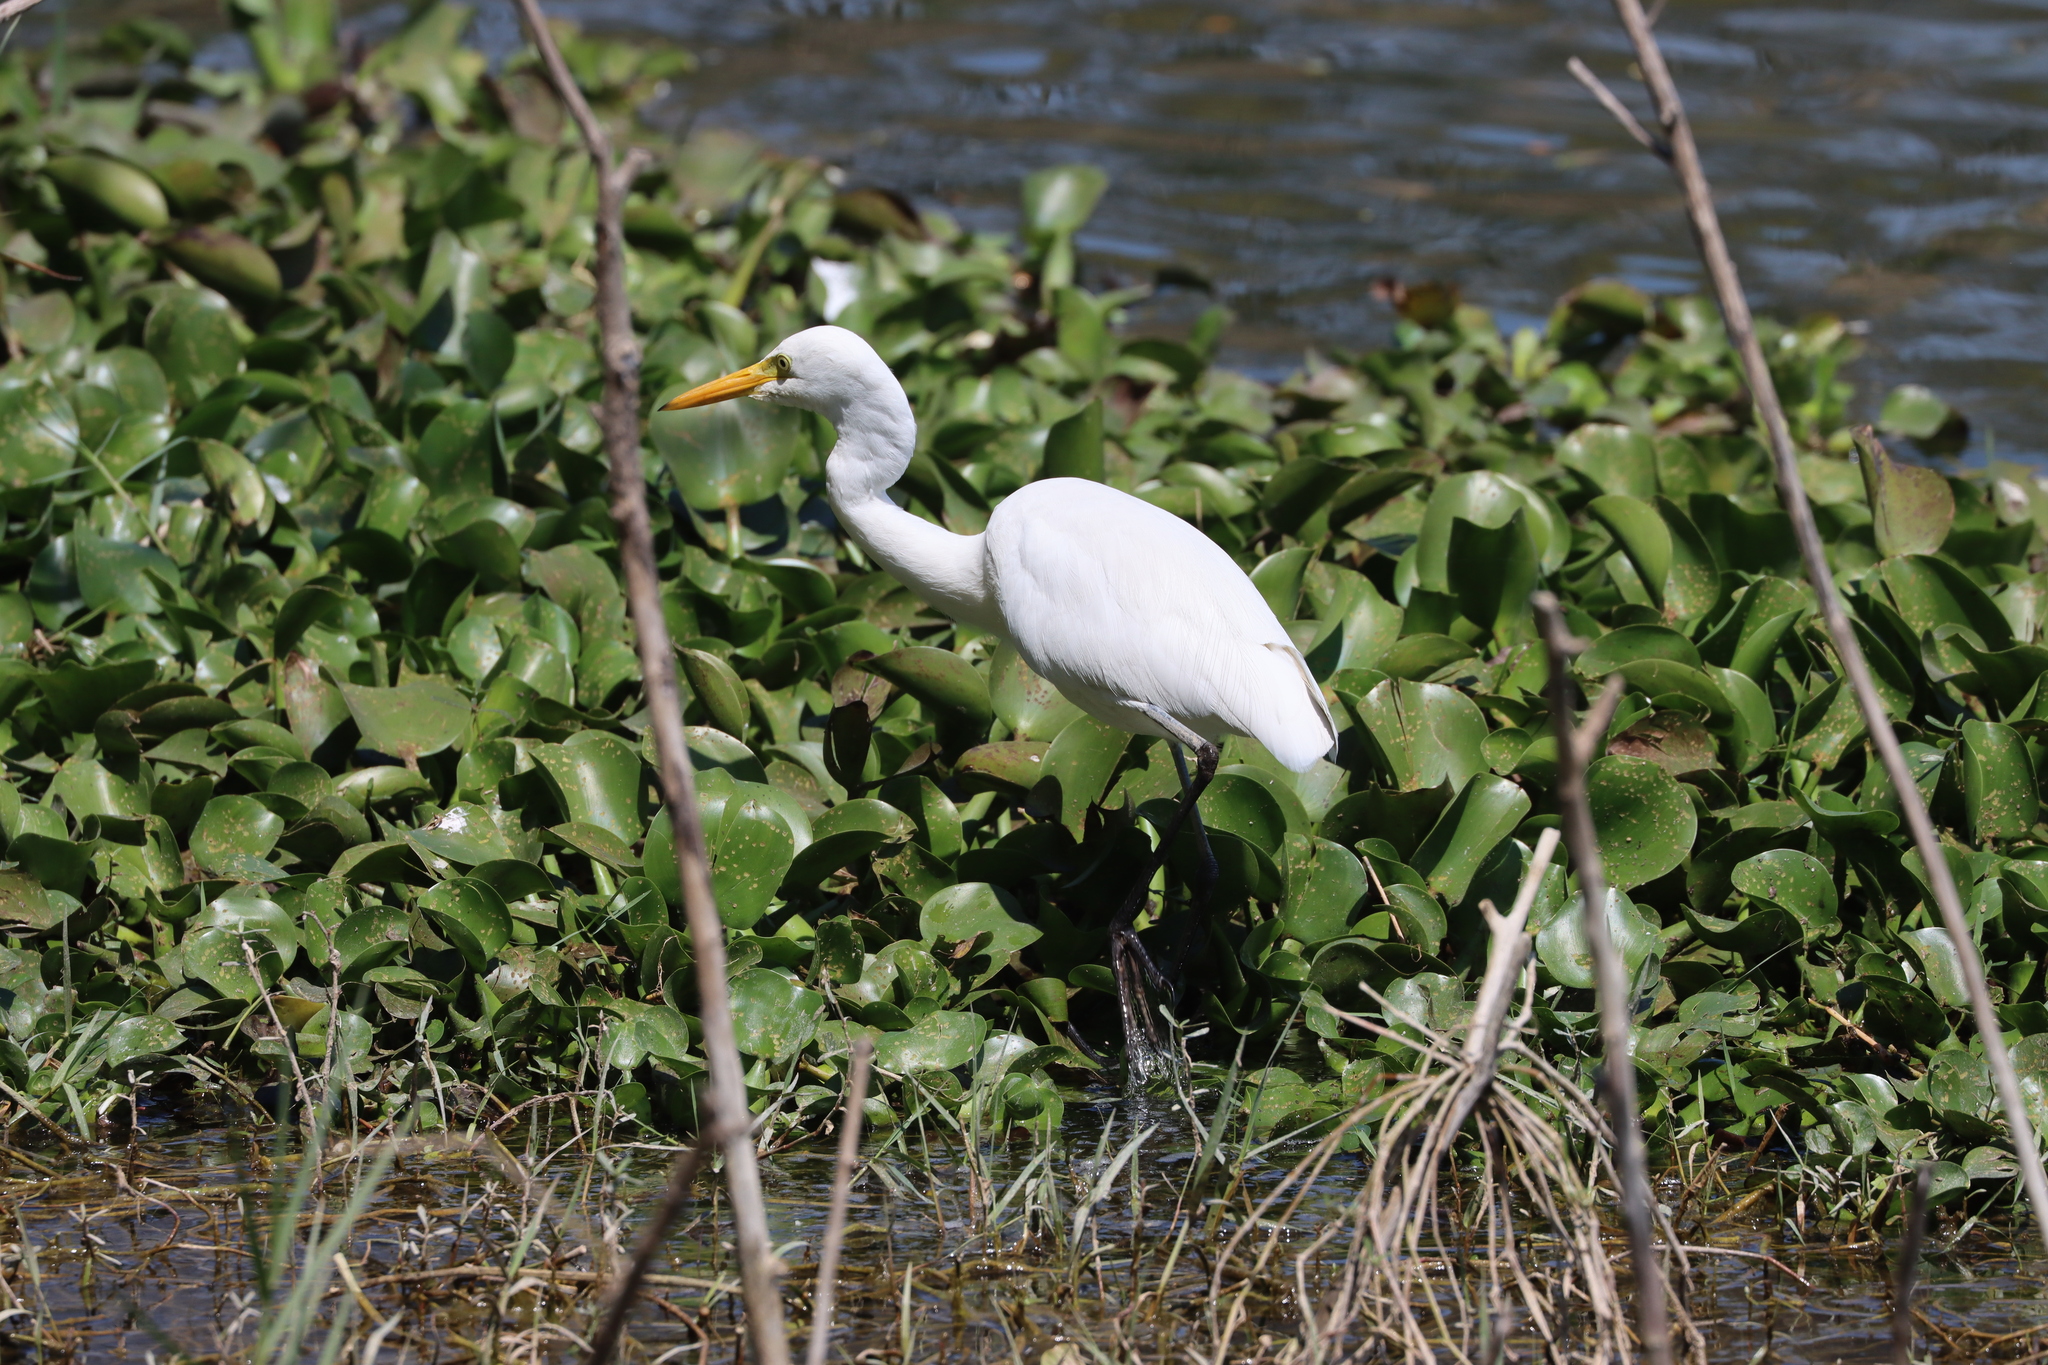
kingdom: Animalia
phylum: Chordata
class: Aves
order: Pelecaniformes
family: Ardeidae
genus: Egretta
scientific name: Egretta intermedia
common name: Intermediate egret
